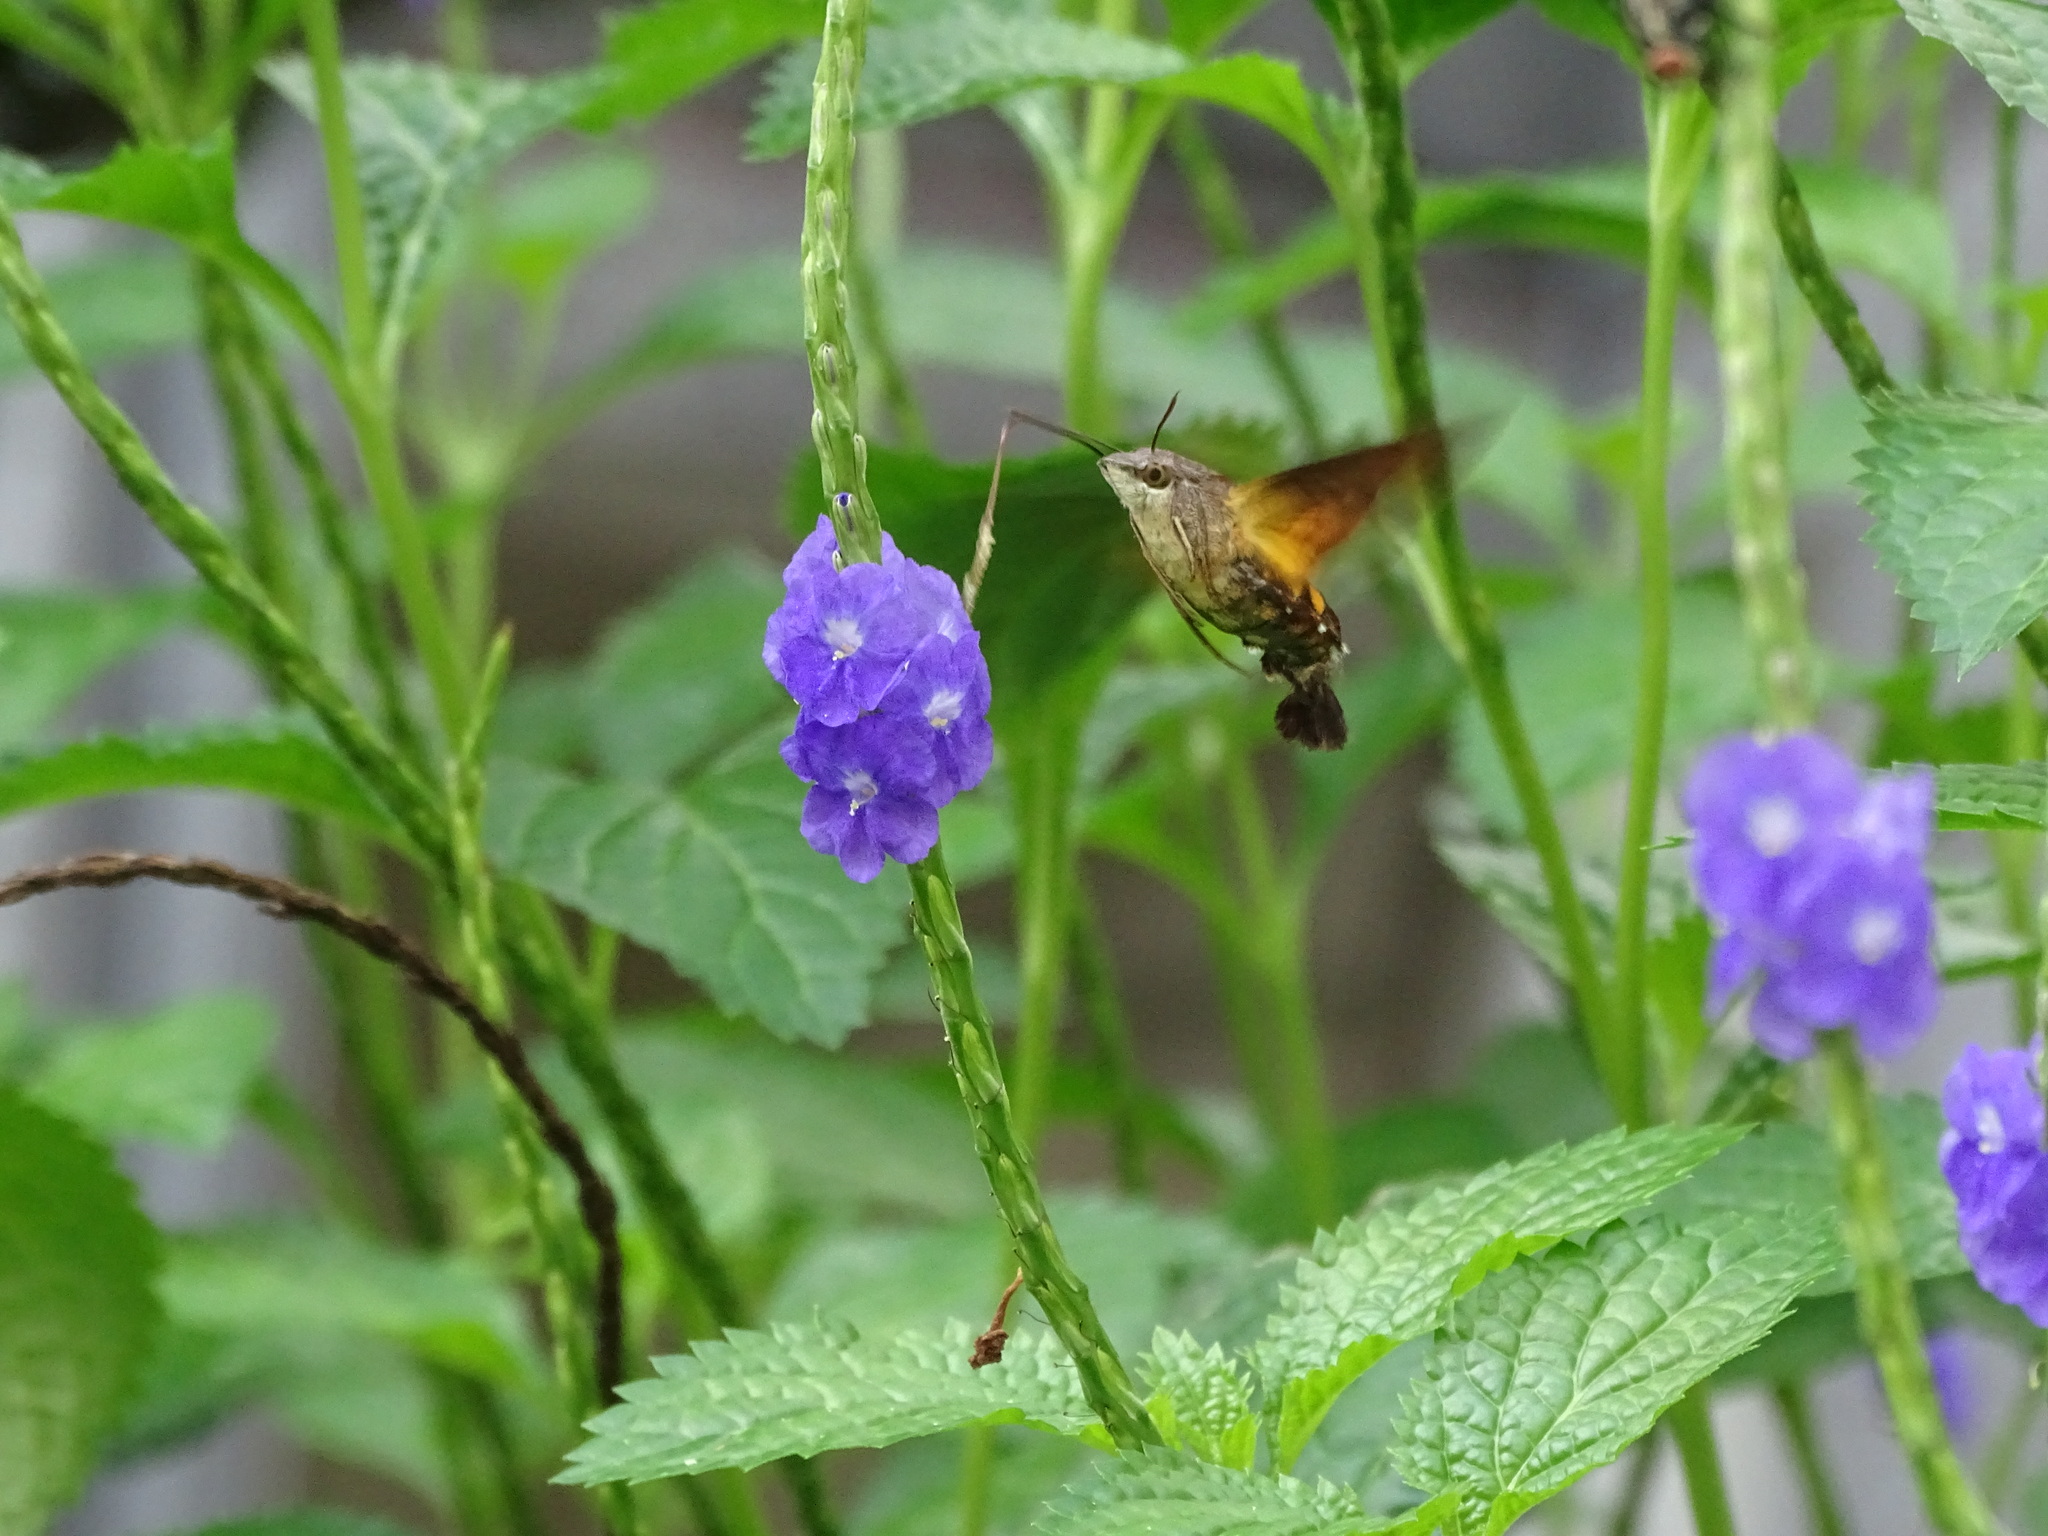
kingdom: Animalia
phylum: Arthropoda
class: Insecta
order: Lepidoptera
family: Sphingidae
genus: Macroglossum
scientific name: Macroglossum pyrrhosticta
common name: Hummingbird hawk moth
